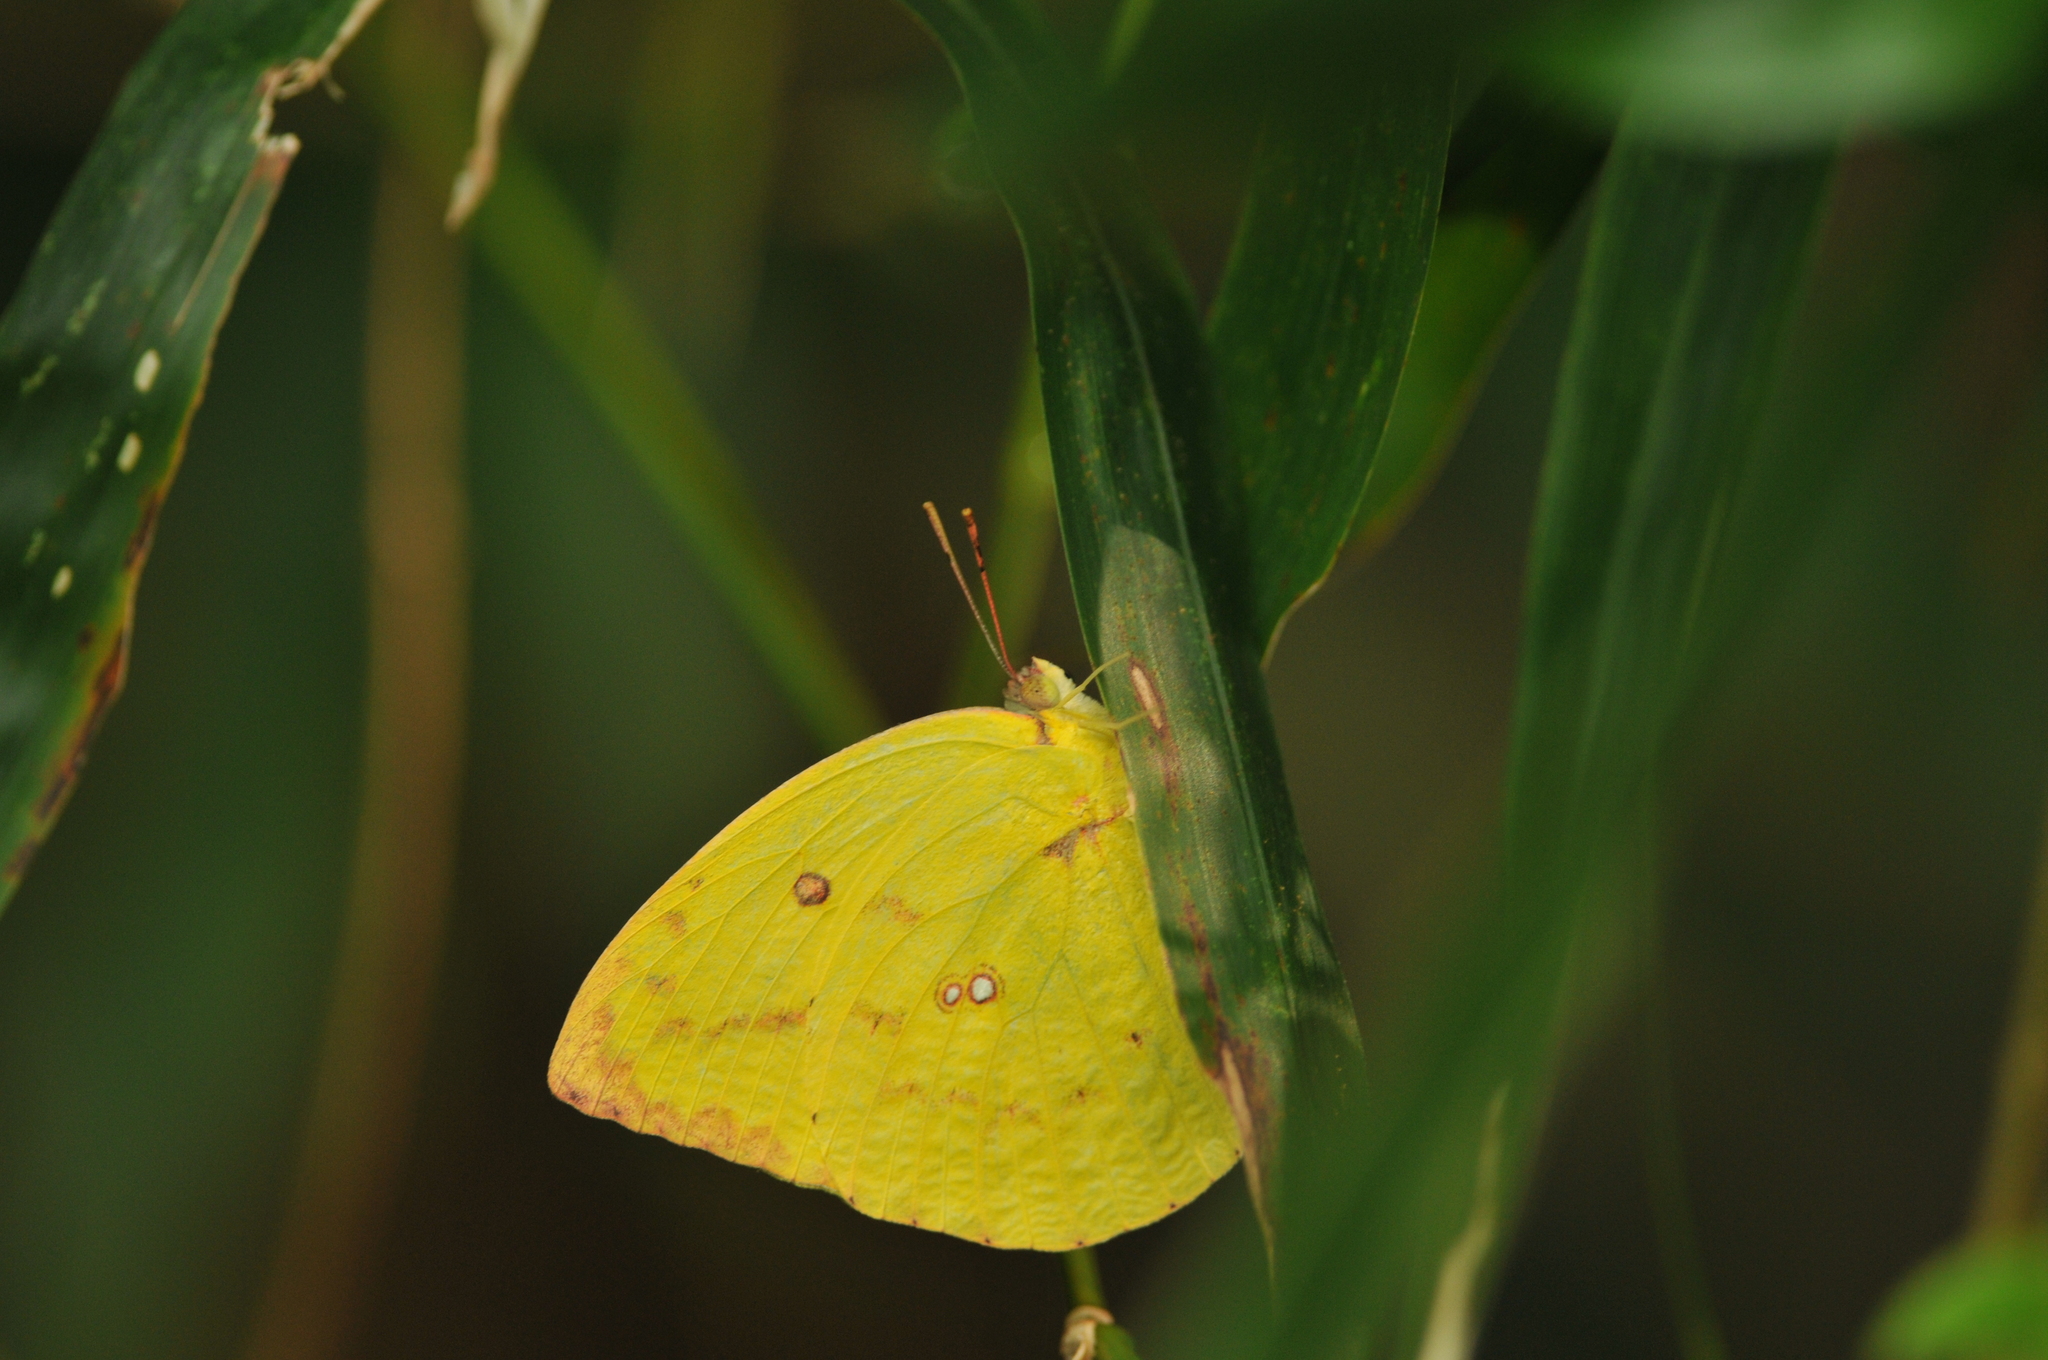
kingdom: Animalia
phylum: Arthropoda
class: Insecta
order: Lepidoptera
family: Pieridae
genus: Catopsilia
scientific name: Catopsilia pomona
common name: Common emigrant
